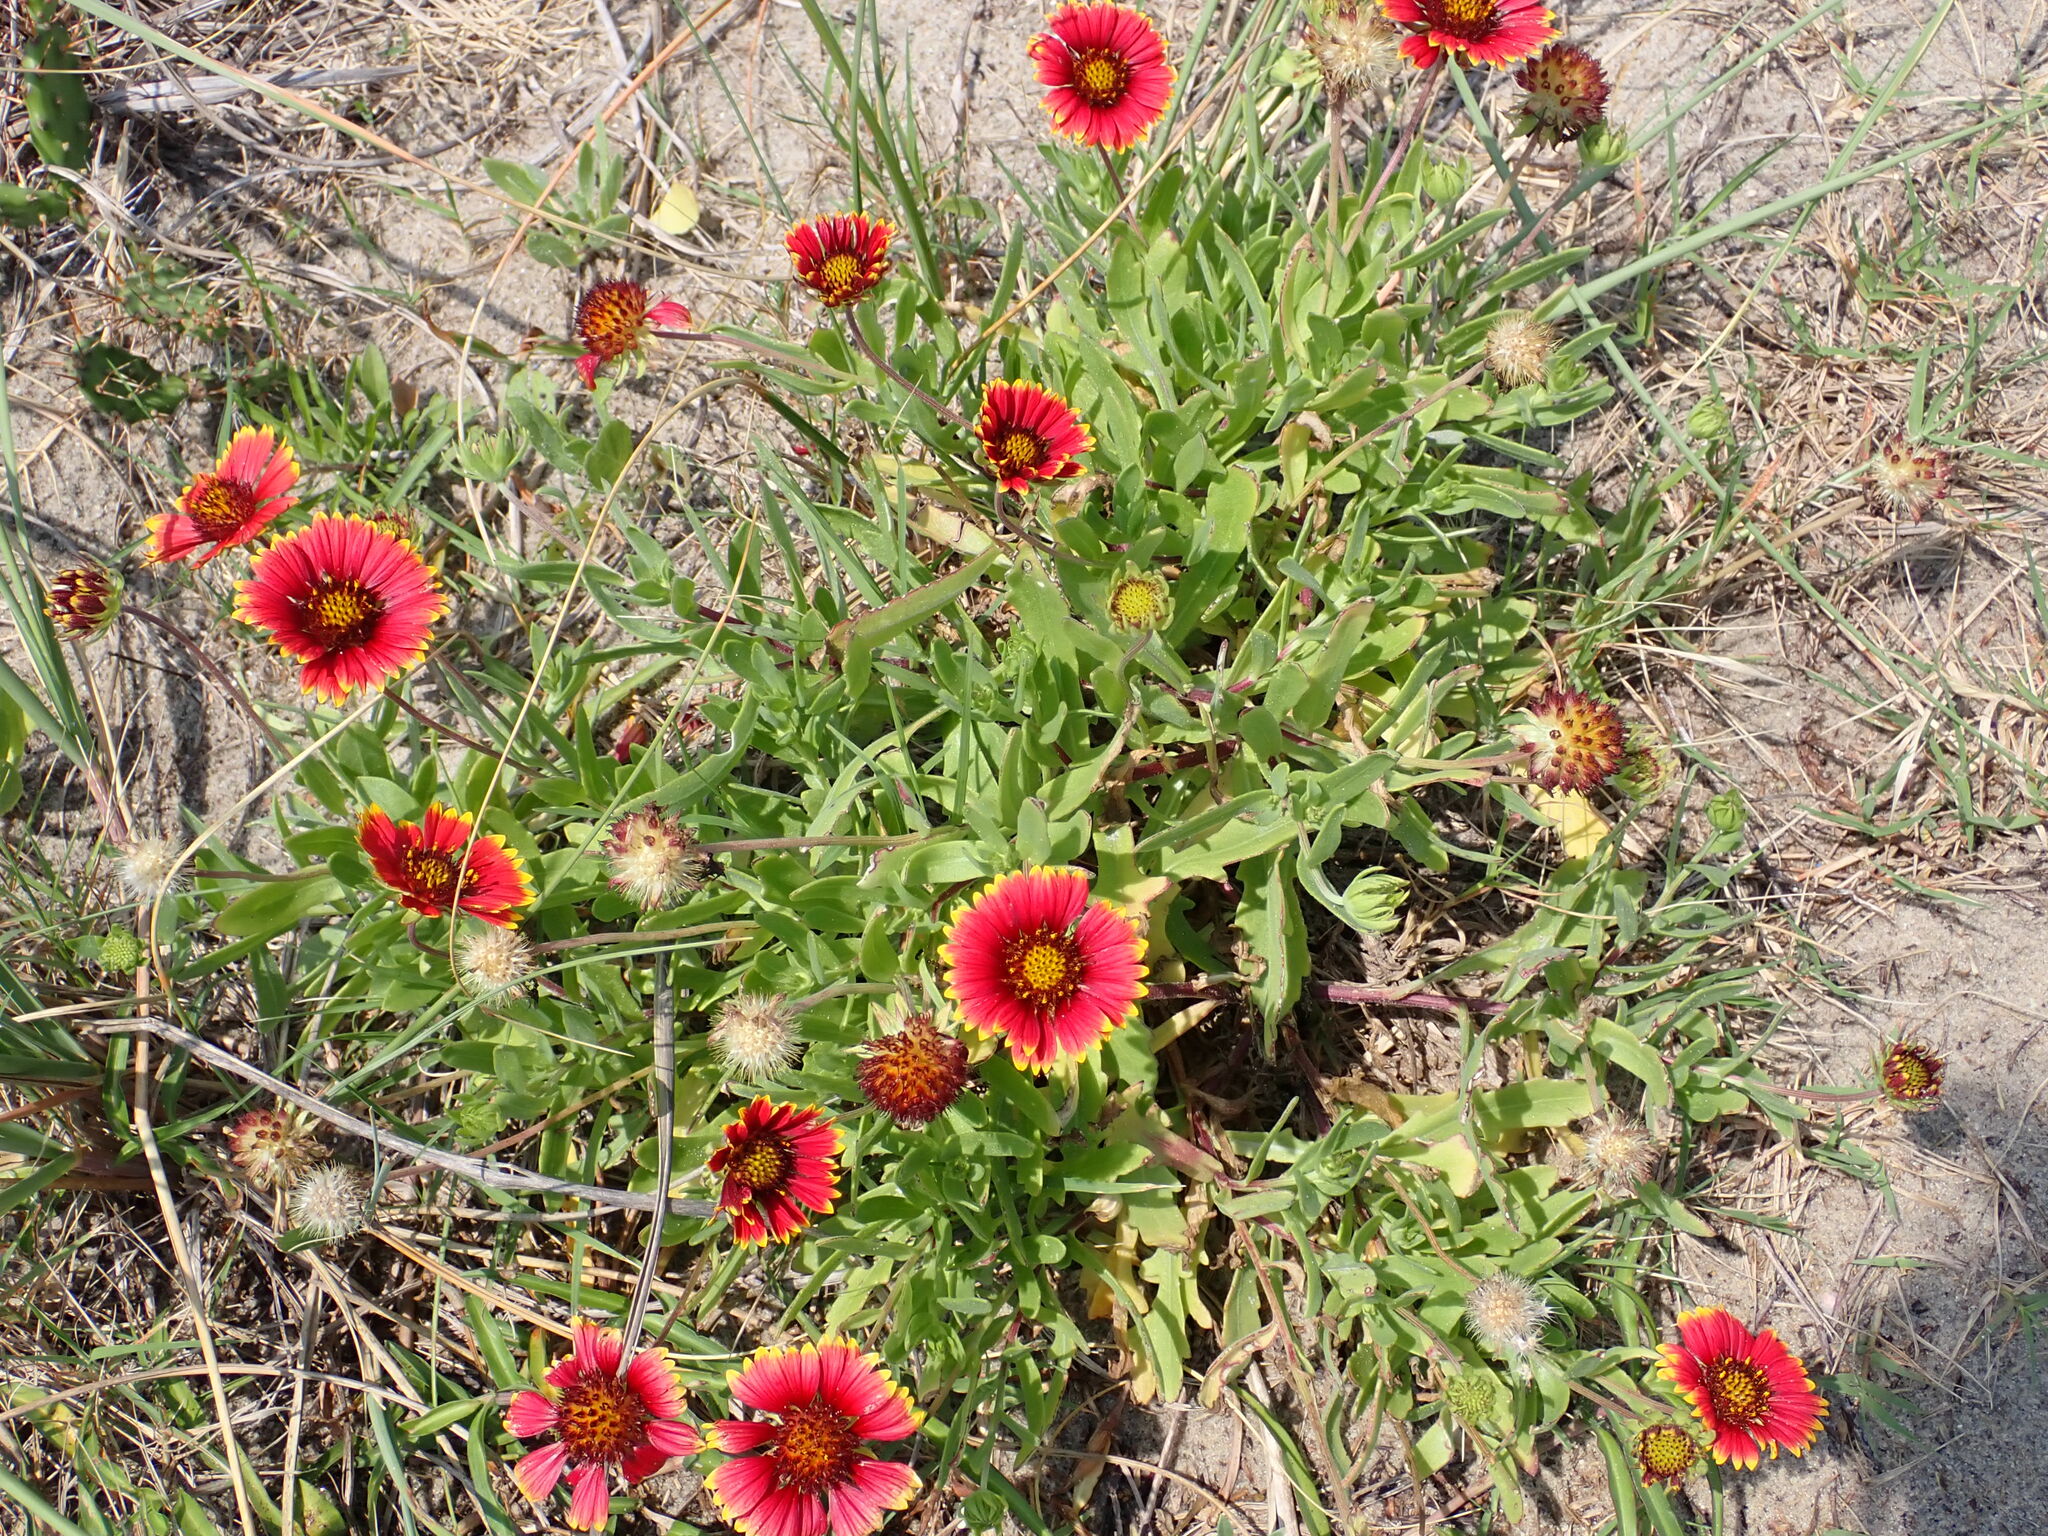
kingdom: Plantae
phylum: Tracheophyta
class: Magnoliopsida
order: Asterales
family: Asteraceae
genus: Gaillardia
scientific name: Gaillardia pulchella
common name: Firewheel
